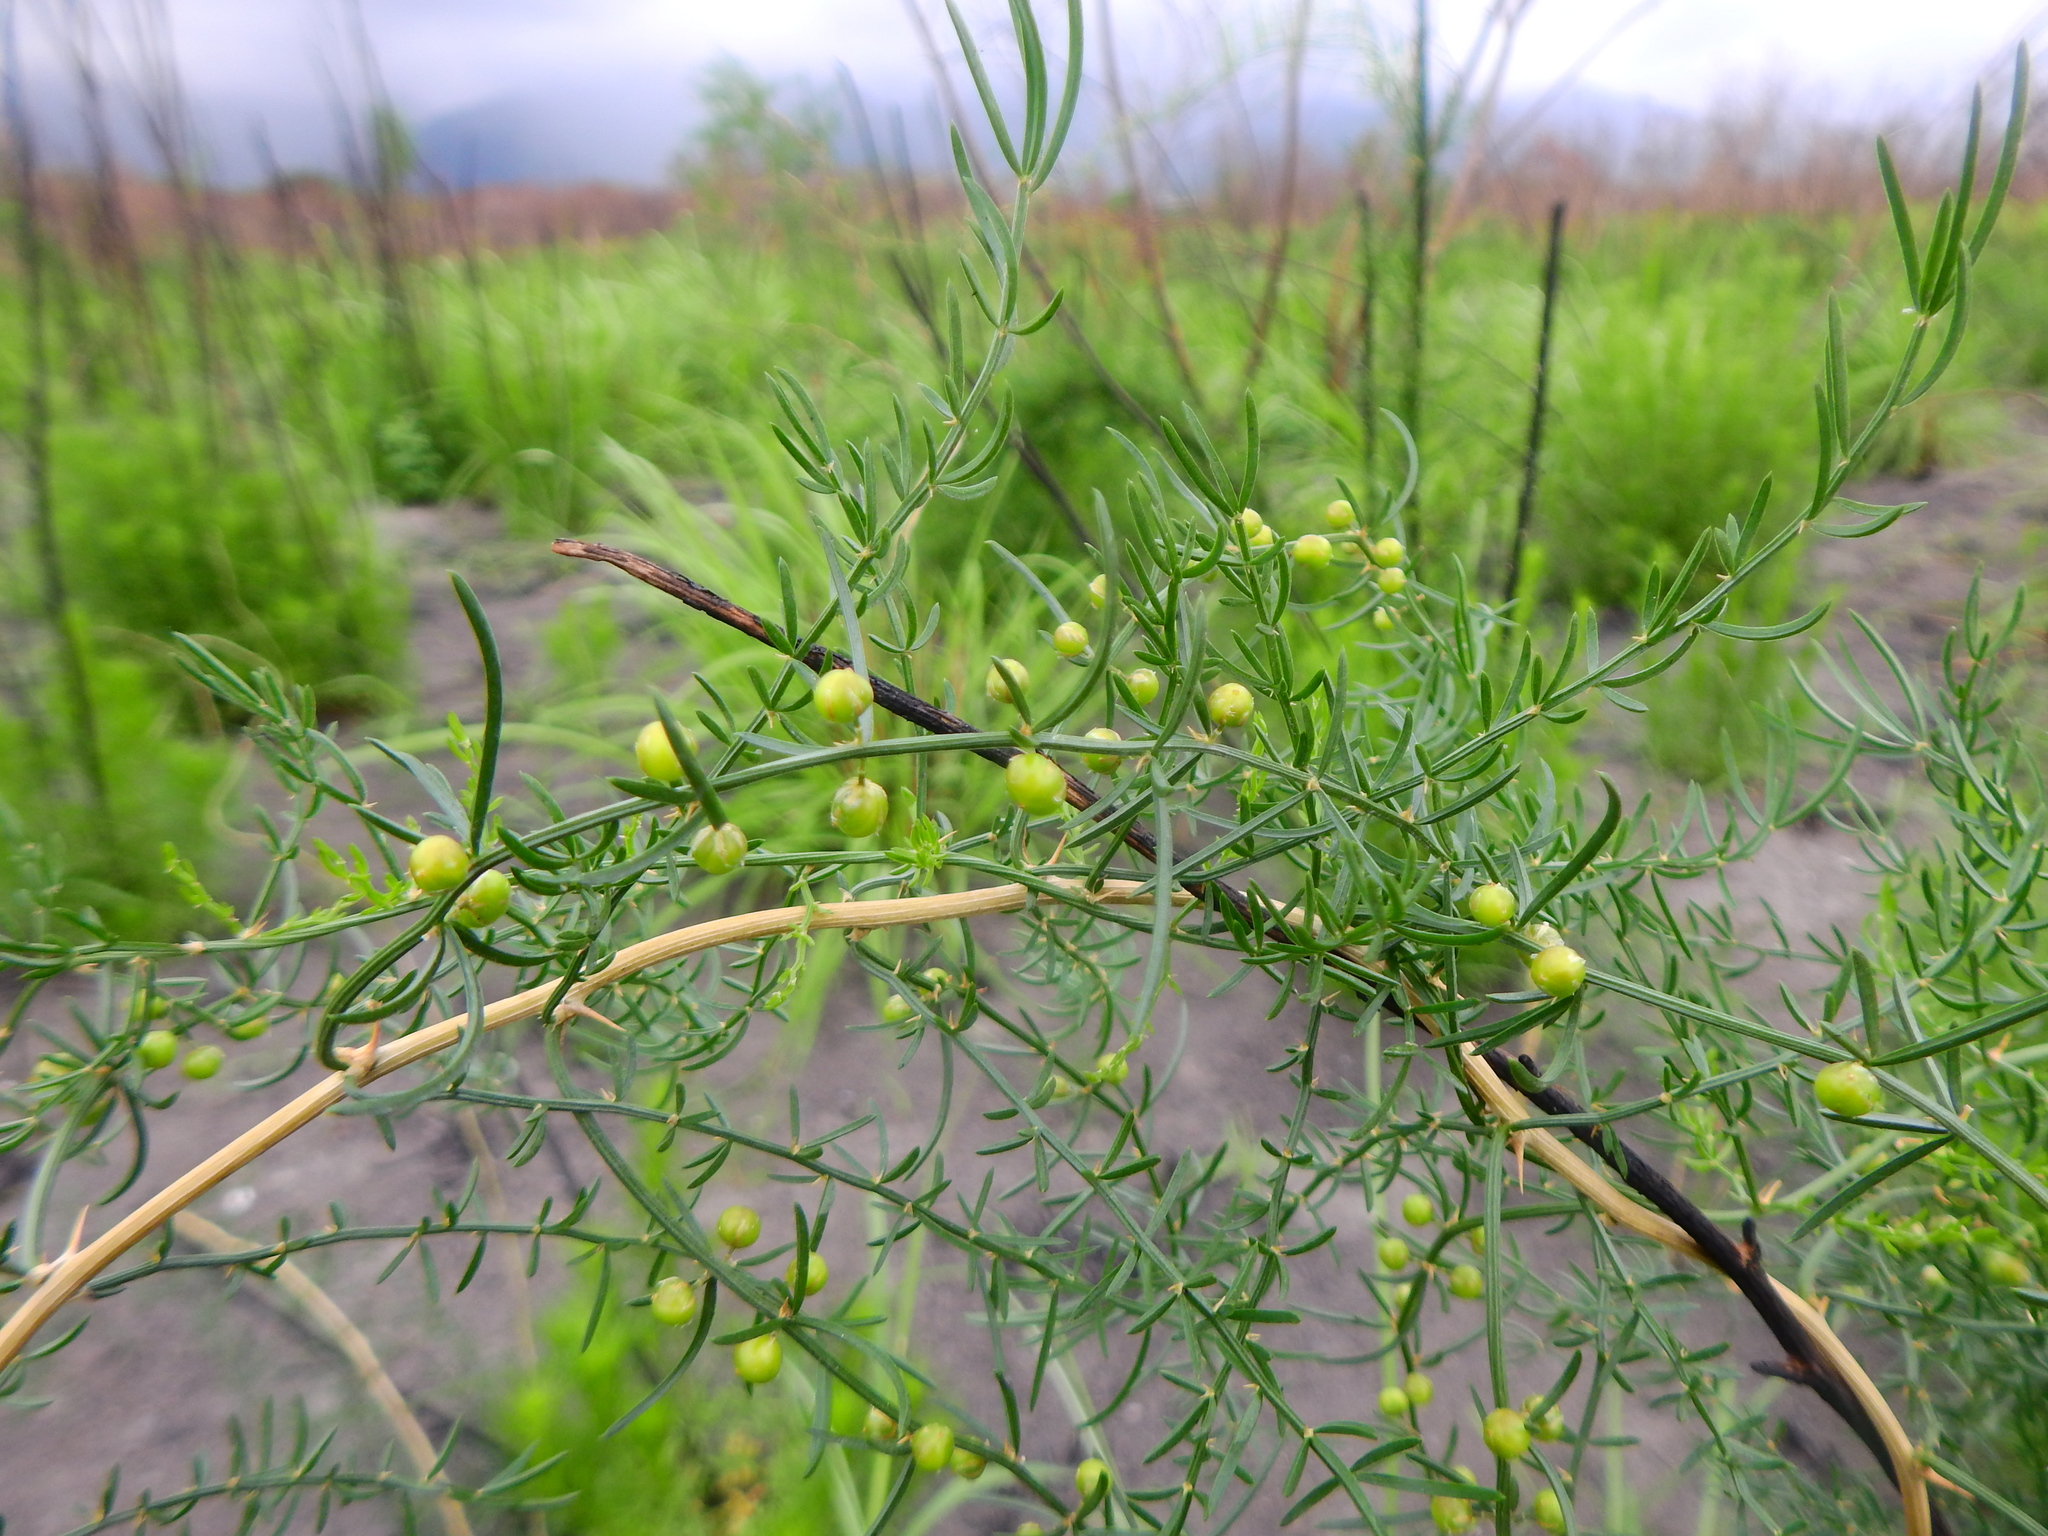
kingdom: Plantae
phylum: Tracheophyta
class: Liliopsida
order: Asparagales
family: Asparagaceae
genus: Asparagus
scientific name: Asparagus cochinchinensis
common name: Chinese asparagus
